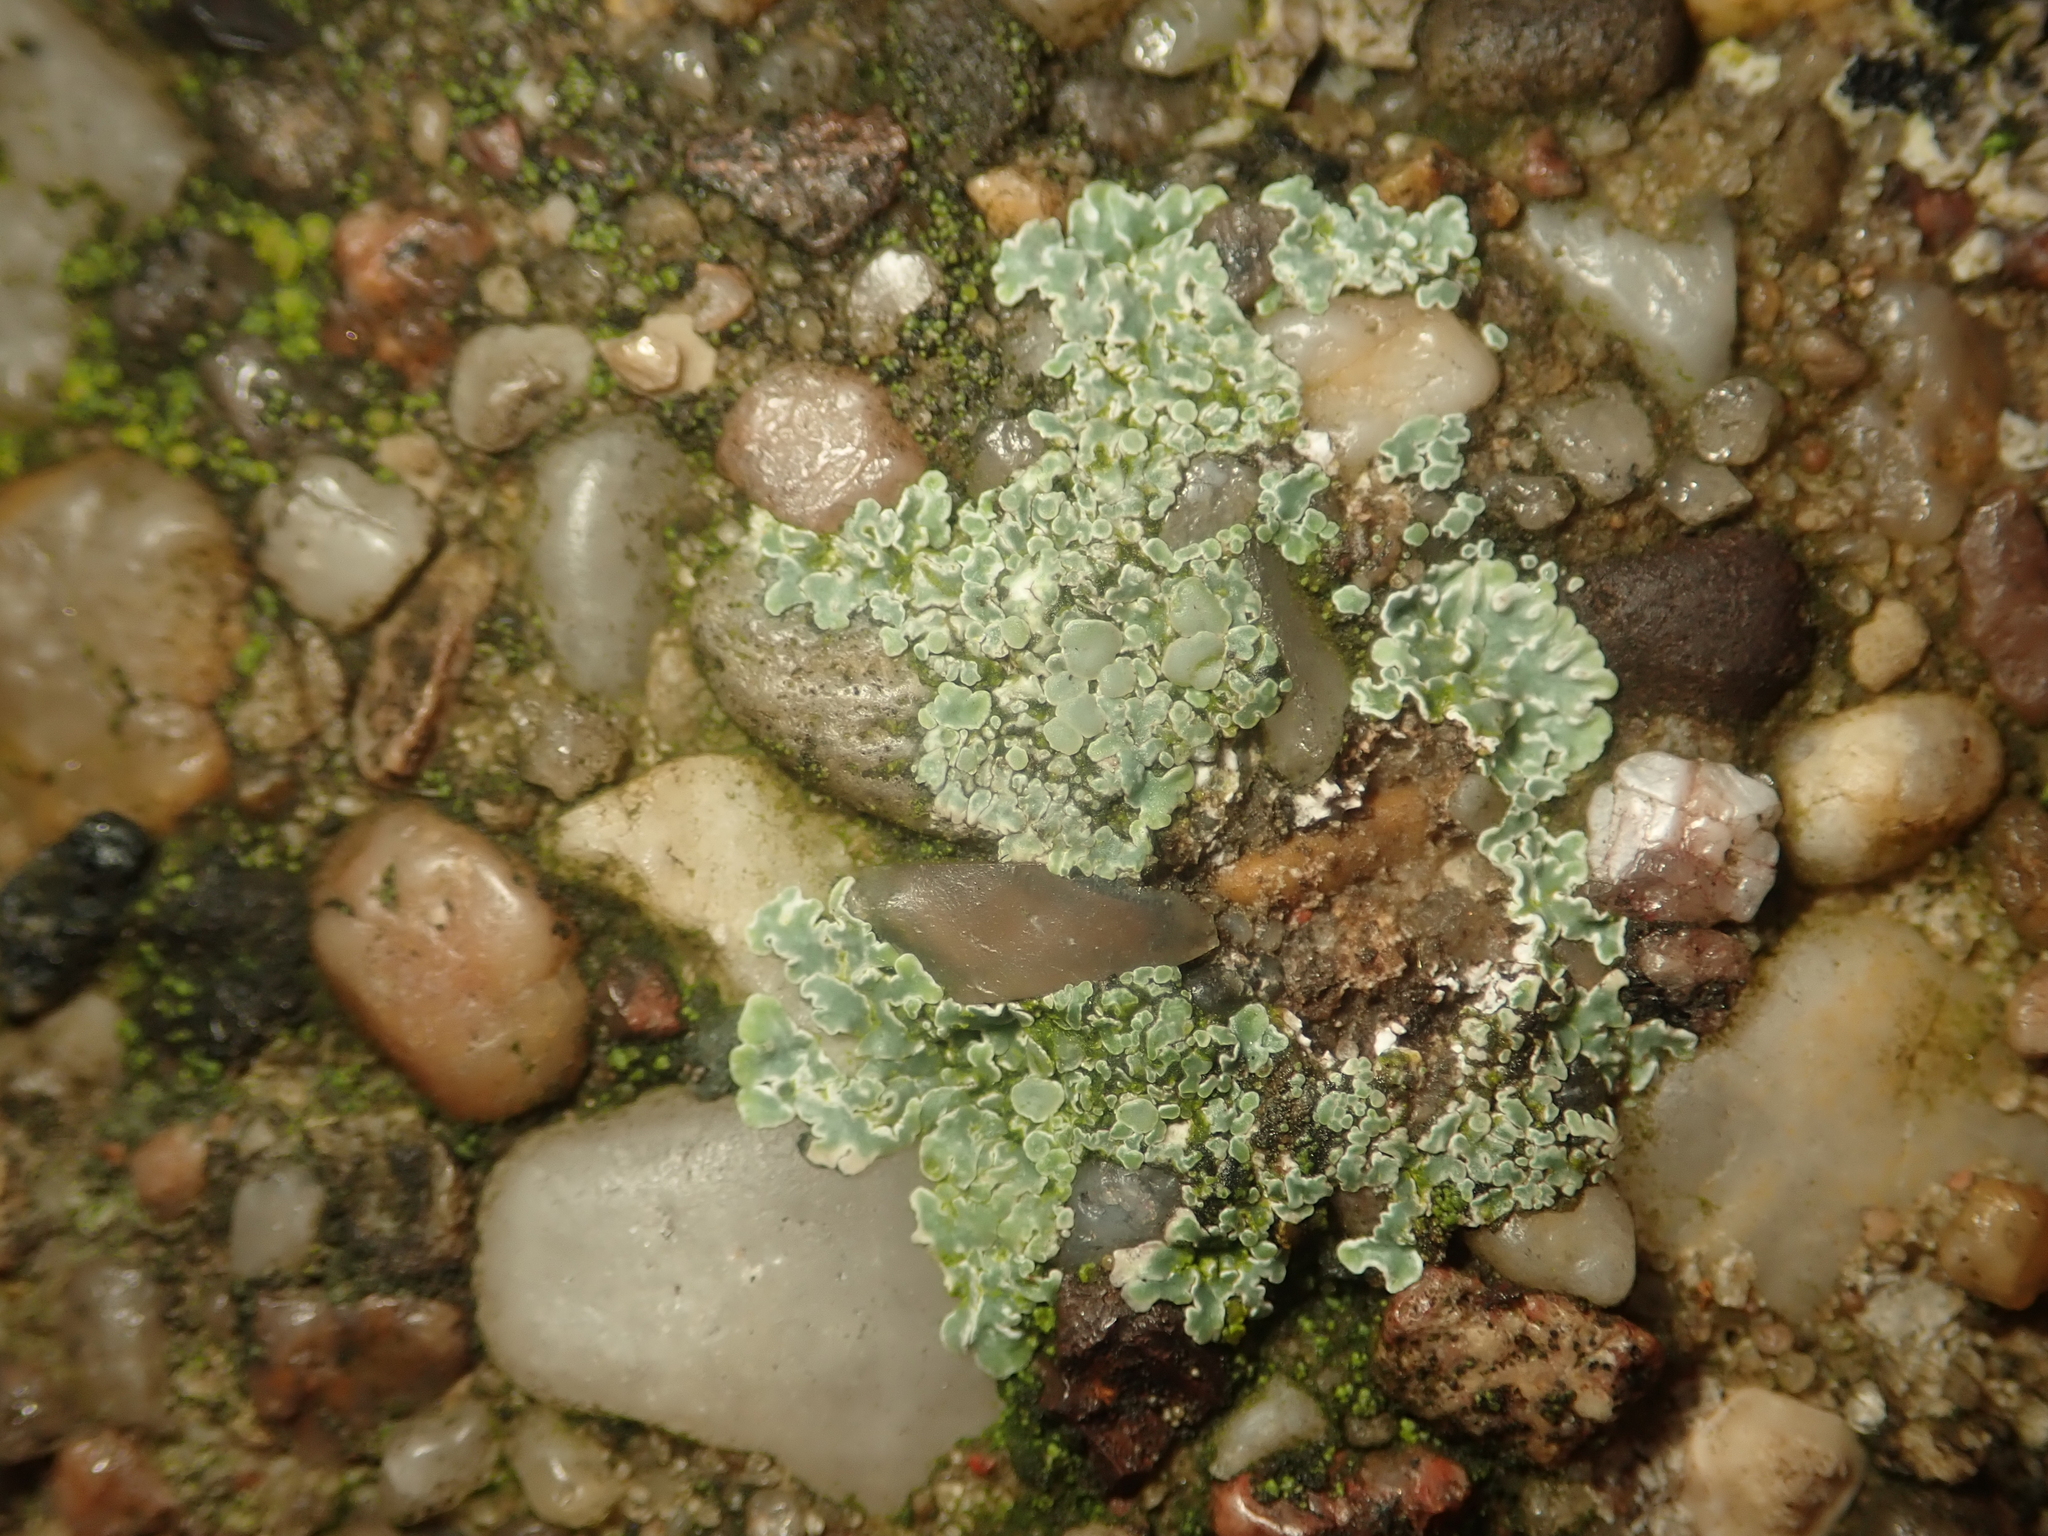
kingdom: Fungi
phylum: Ascomycota
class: Lecanoromycetes
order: Lecanorales
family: Lecanoraceae
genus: Protoparmeliopsis
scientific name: Protoparmeliopsis muralis
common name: Stonewall rim lichen
